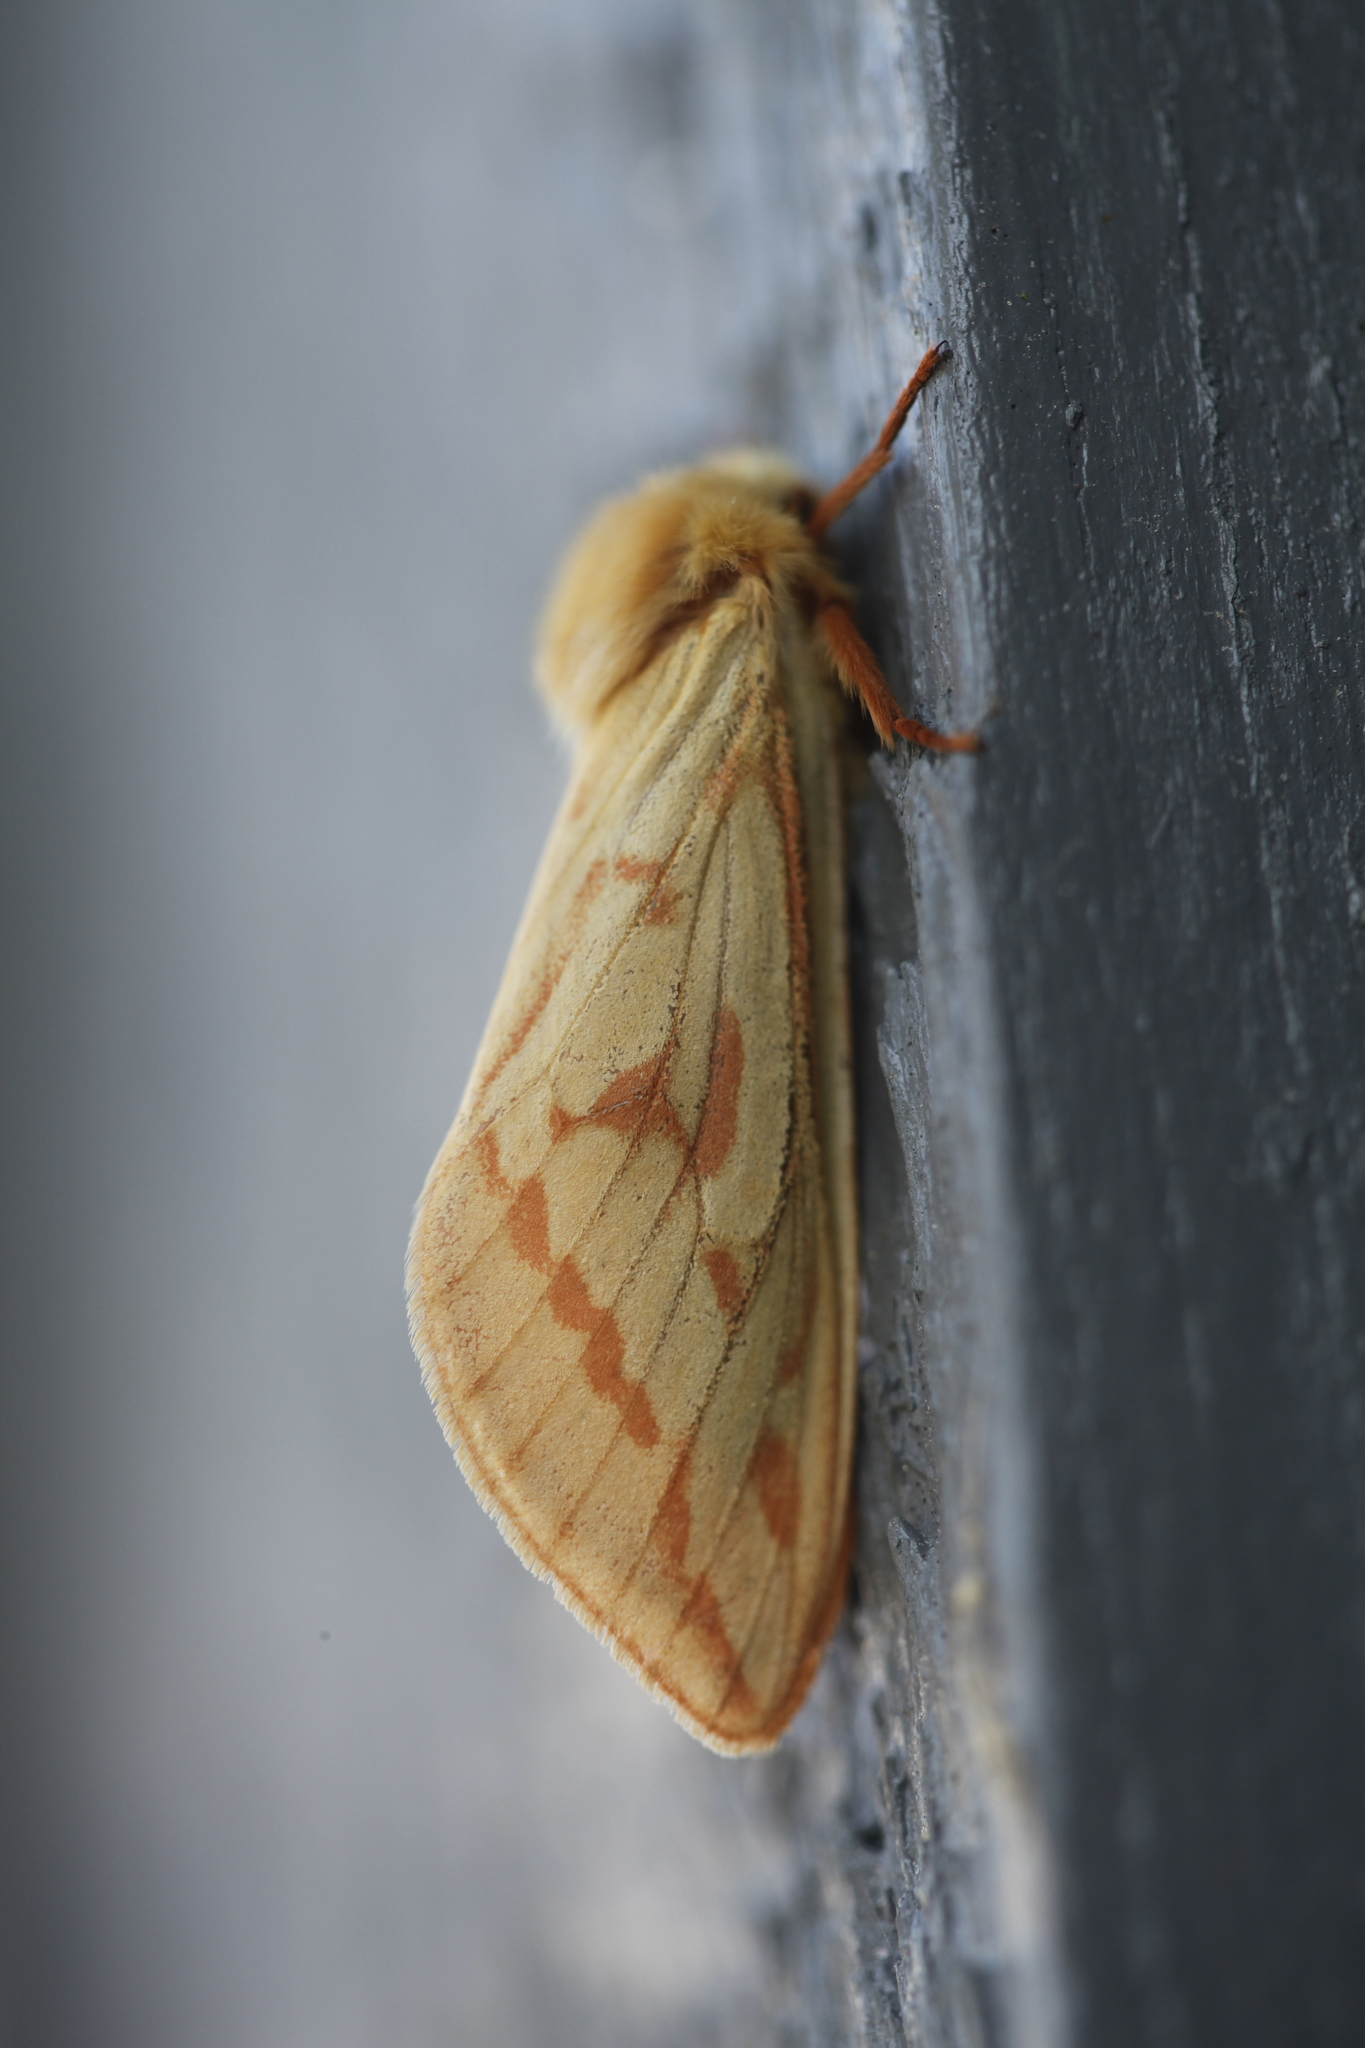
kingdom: Animalia
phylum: Arthropoda
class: Insecta
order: Lepidoptera
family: Hepialidae
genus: Hepialus
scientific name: Hepialus humuli
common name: Ghost moth
